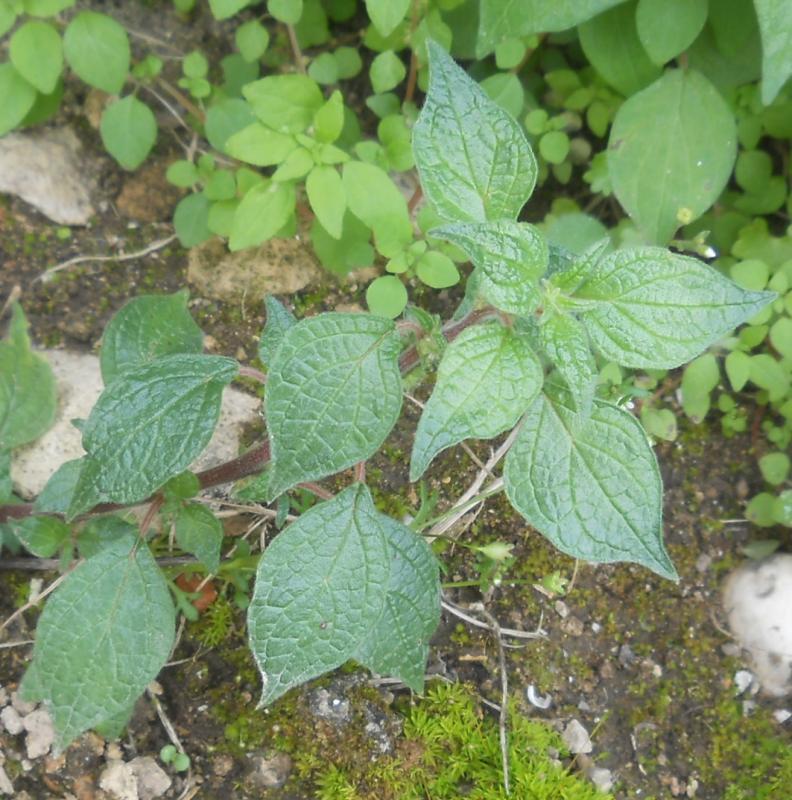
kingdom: Plantae
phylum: Tracheophyta
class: Magnoliopsida
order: Rosales
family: Urticaceae
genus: Parietaria
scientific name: Parietaria judaica
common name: Pellitory-of-the-wall
